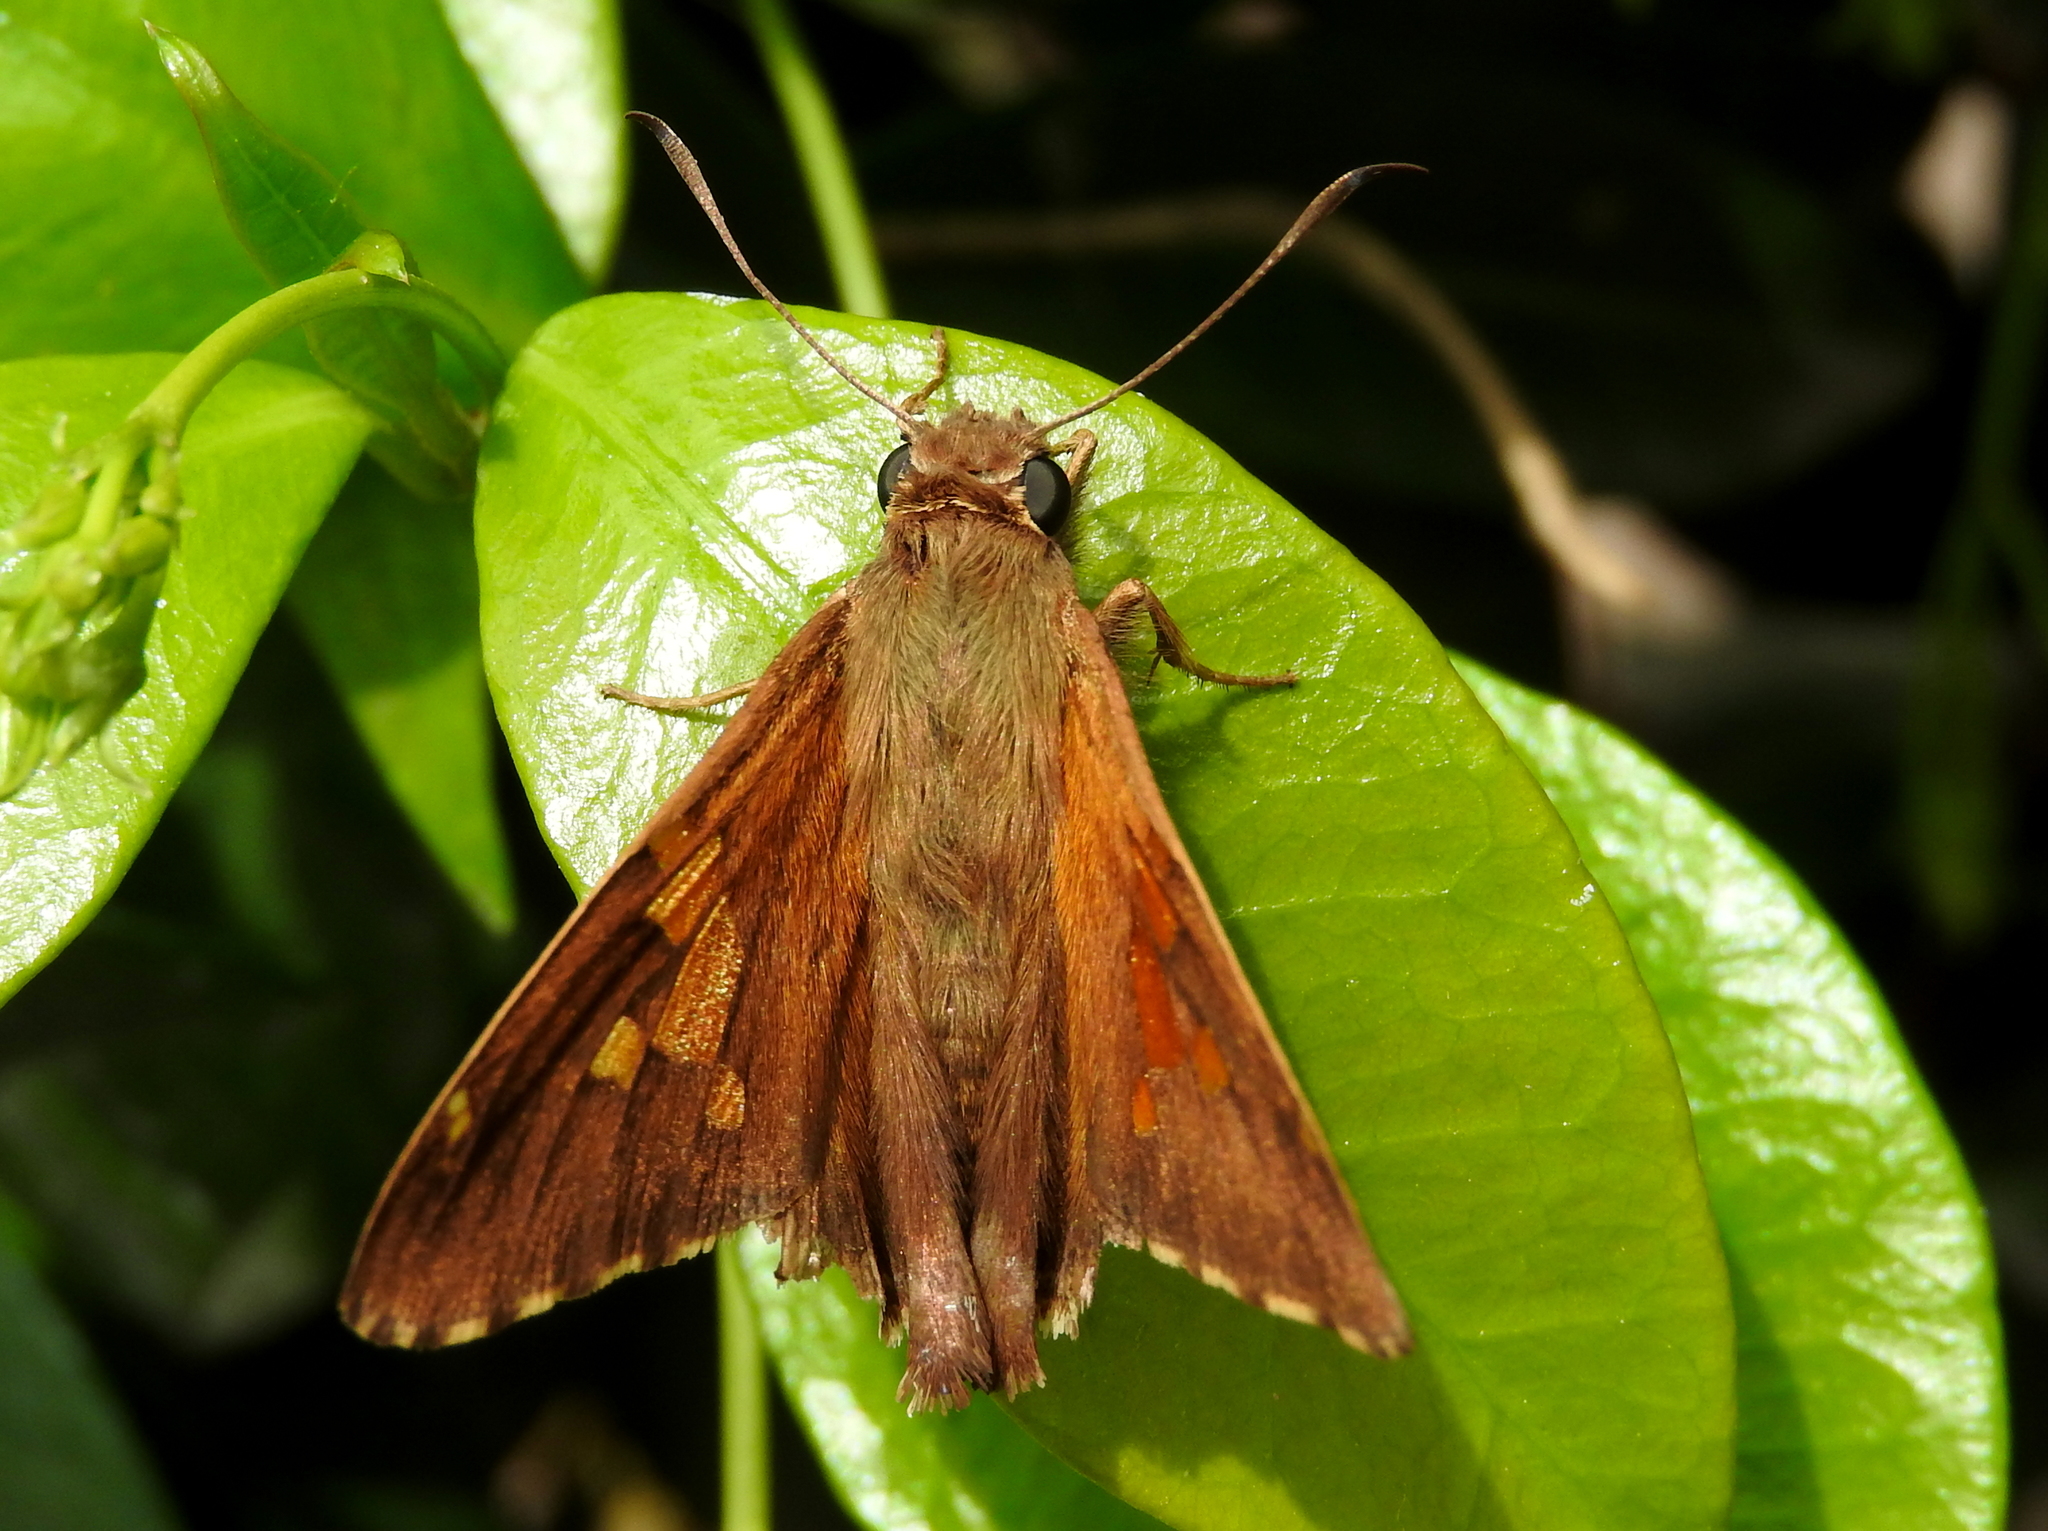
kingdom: Animalia
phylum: Arthropoda
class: Insecta
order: Lepidoptera
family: Hesperiidae
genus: Epargyreus
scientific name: Epargyreus tmolis
